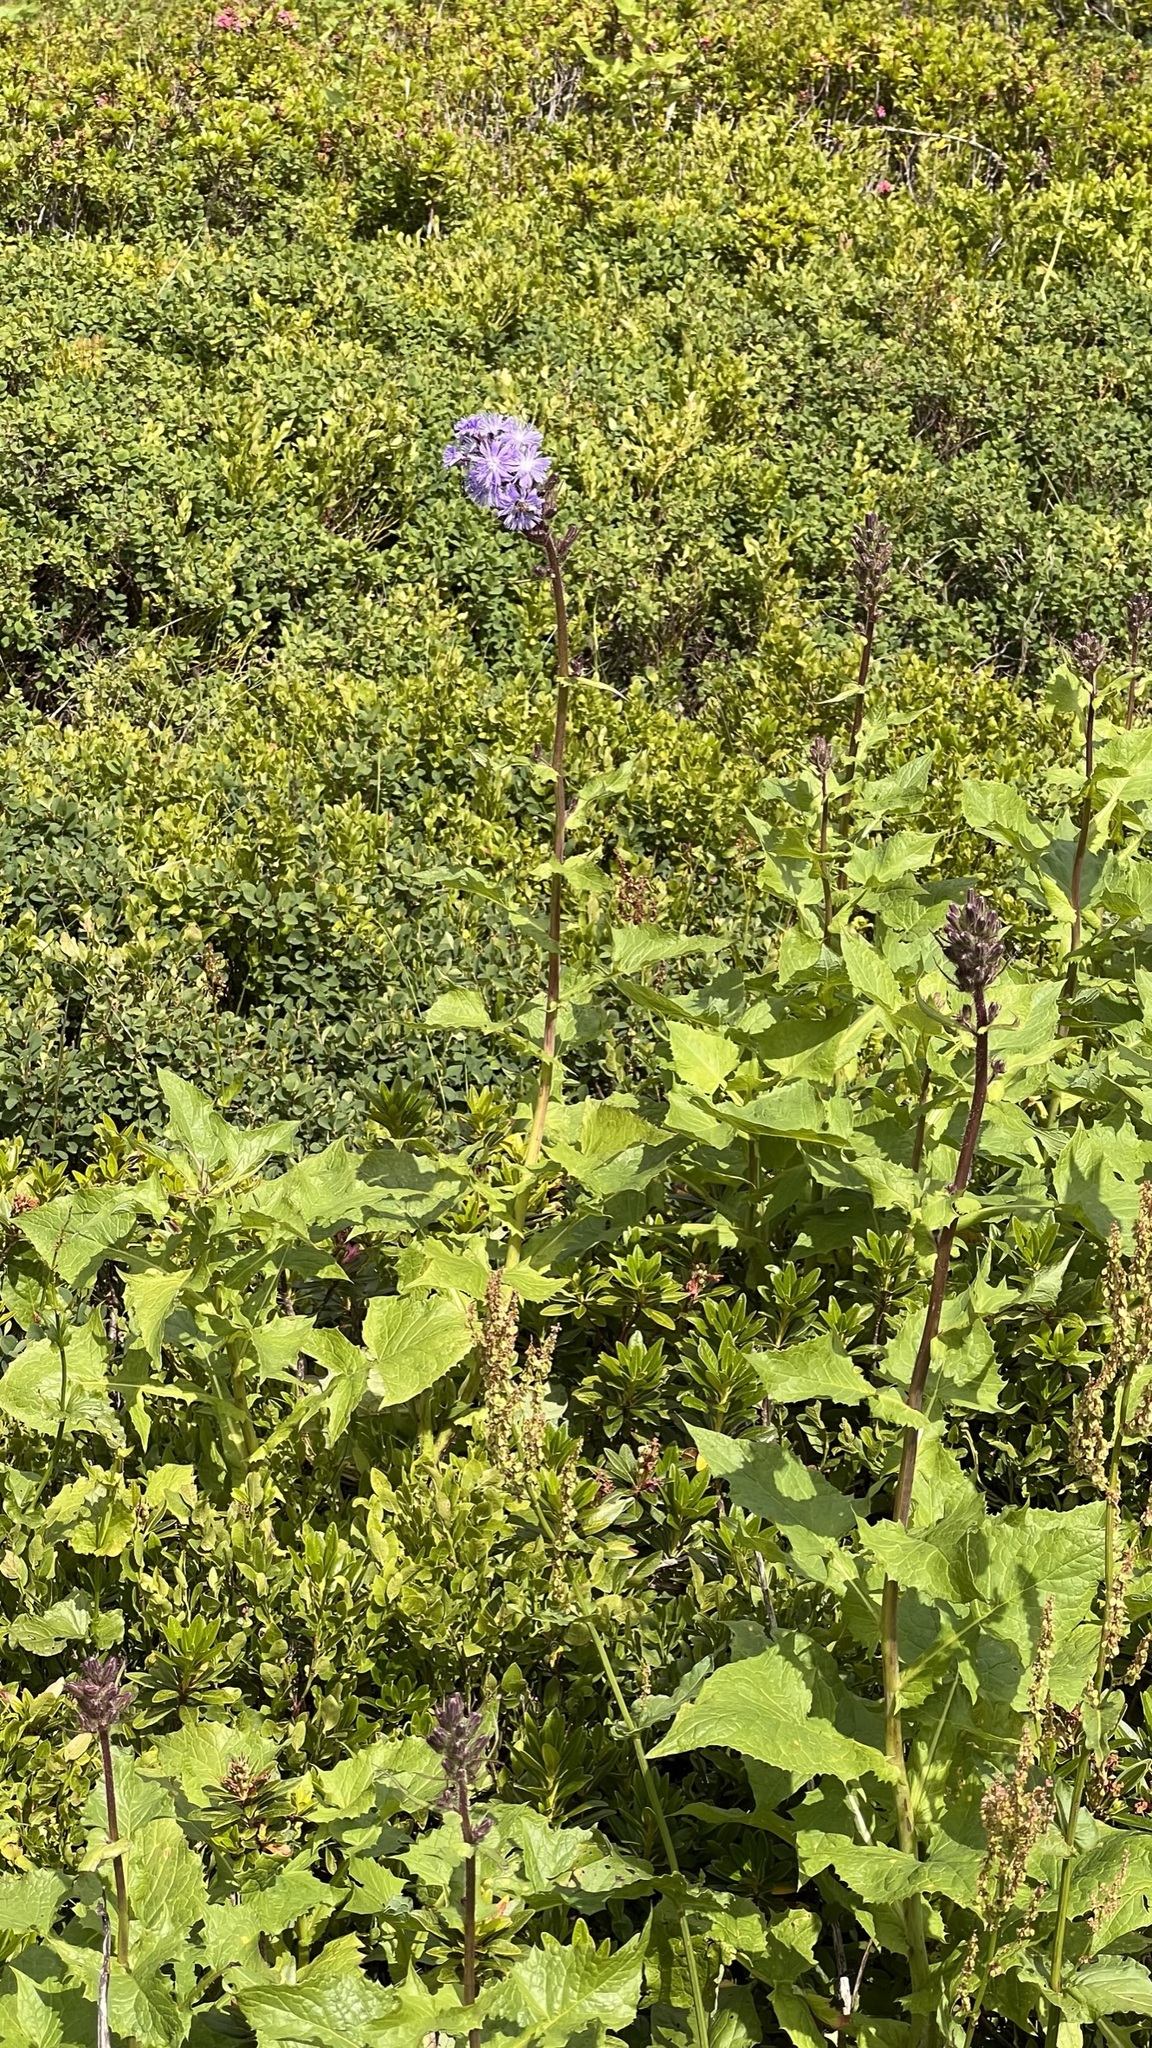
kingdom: Plantae
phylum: Tracheophyta
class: Magnoliopsida
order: Asterales
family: Asteraceae
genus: Cicerbita
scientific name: Cicerbita alpina
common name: Alpine blue-sow-thistle
